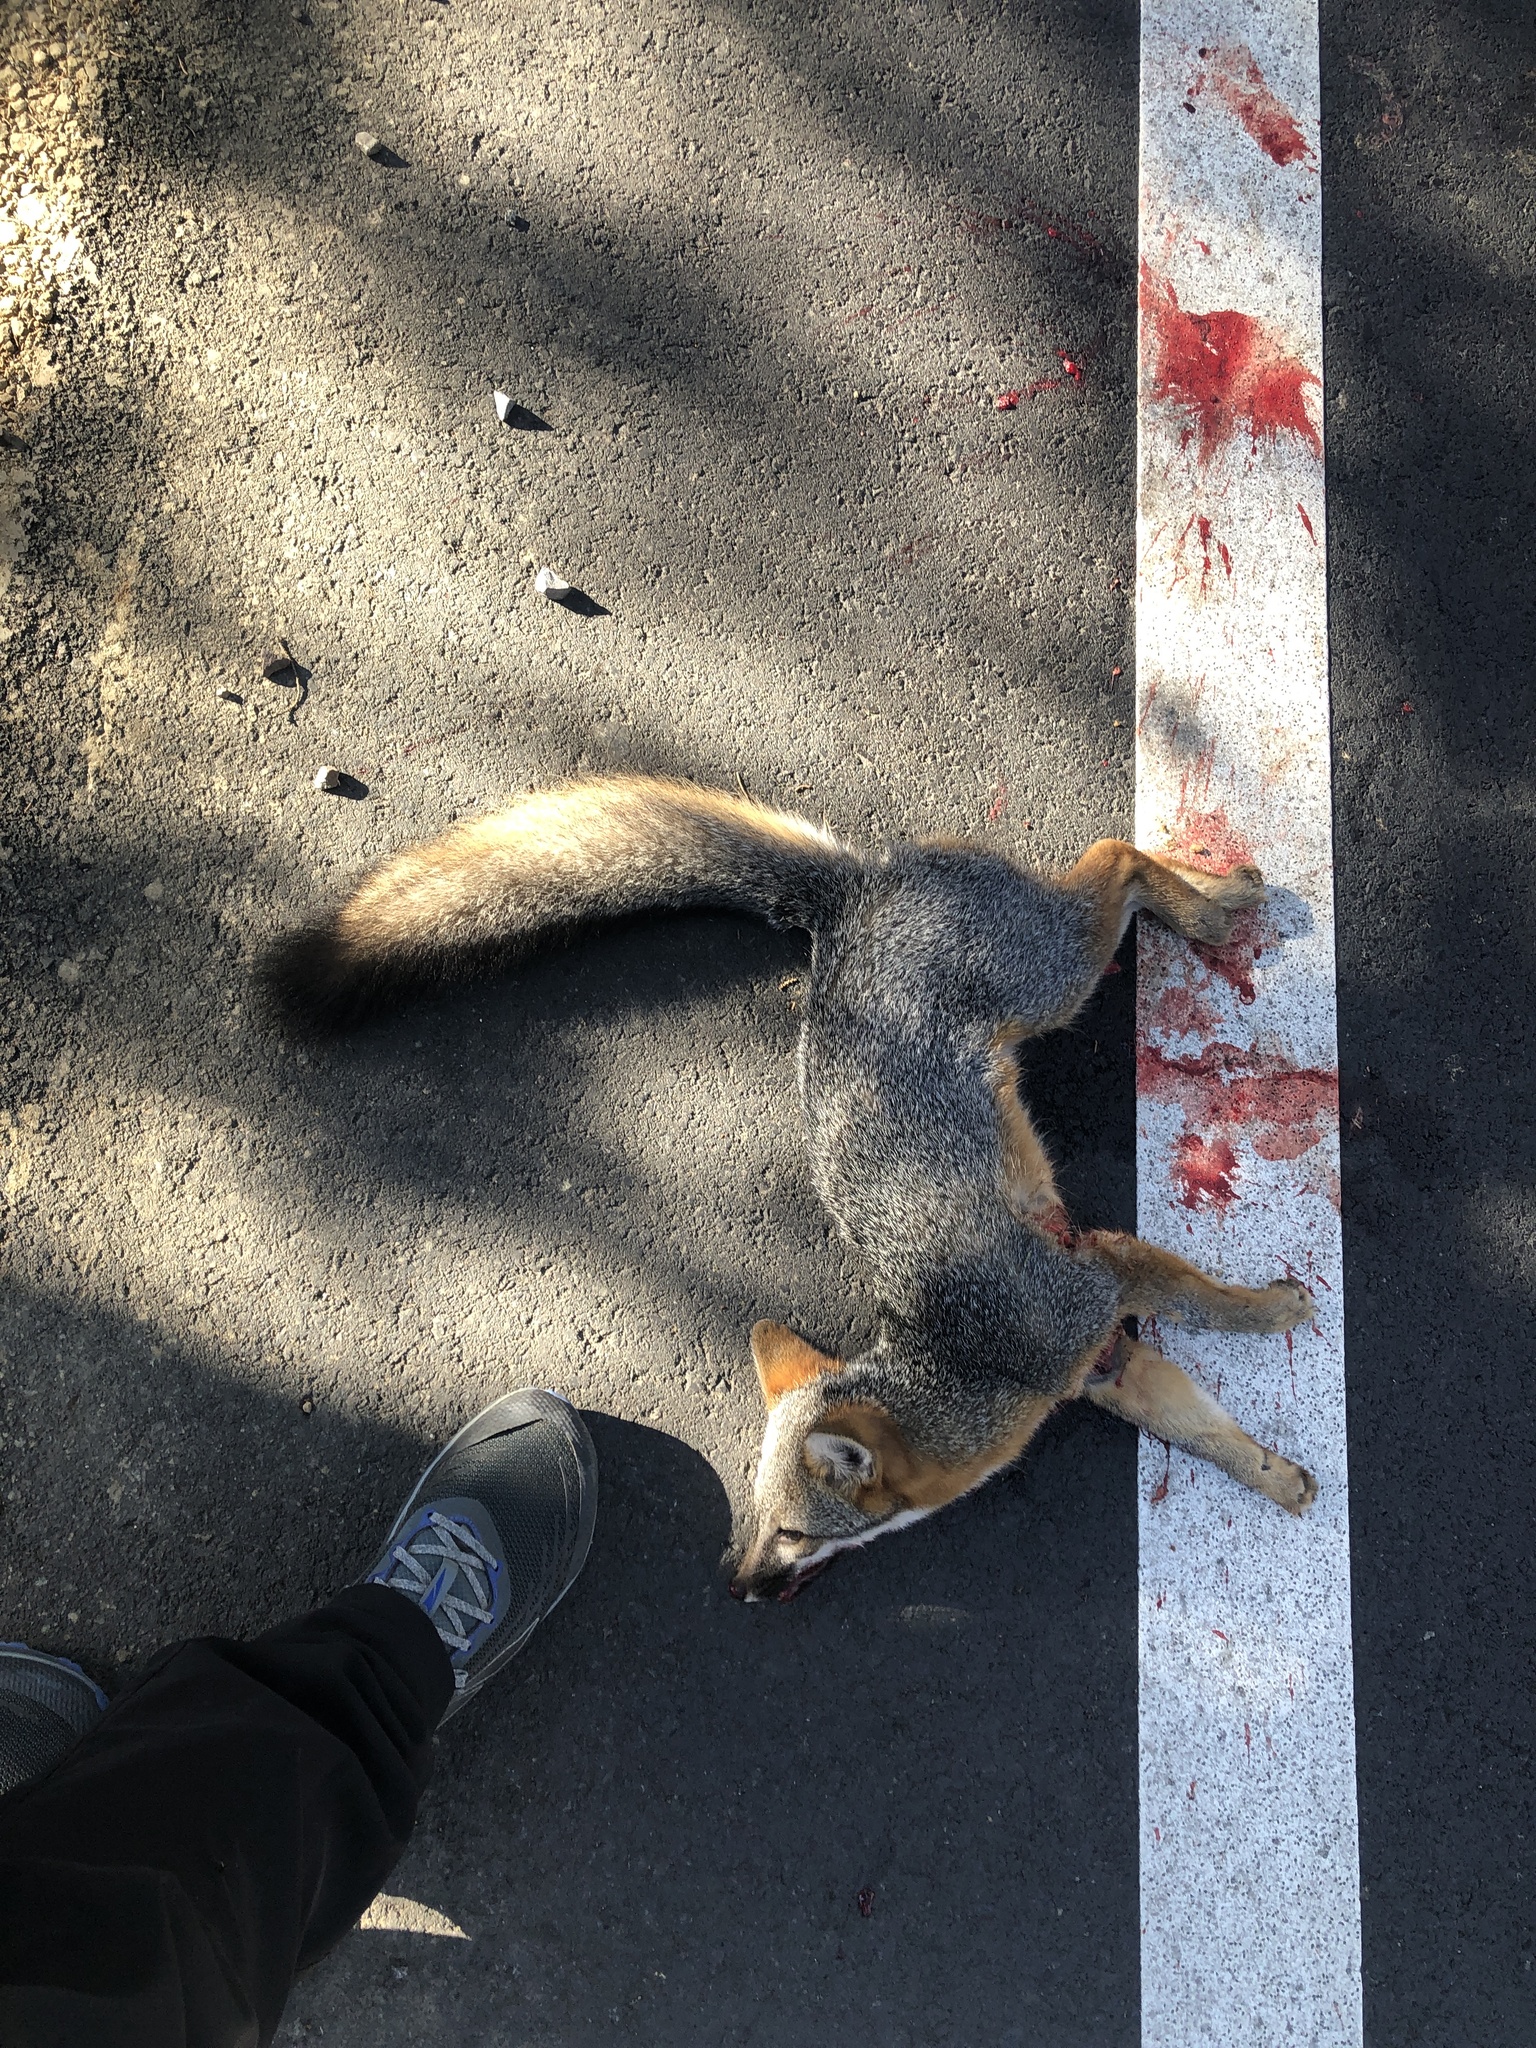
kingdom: Animalia
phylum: Chordata
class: Mammalia
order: Carnivora
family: Canidae
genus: Urocyon
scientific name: Urocyon cinereoargenteus
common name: Gray fox
